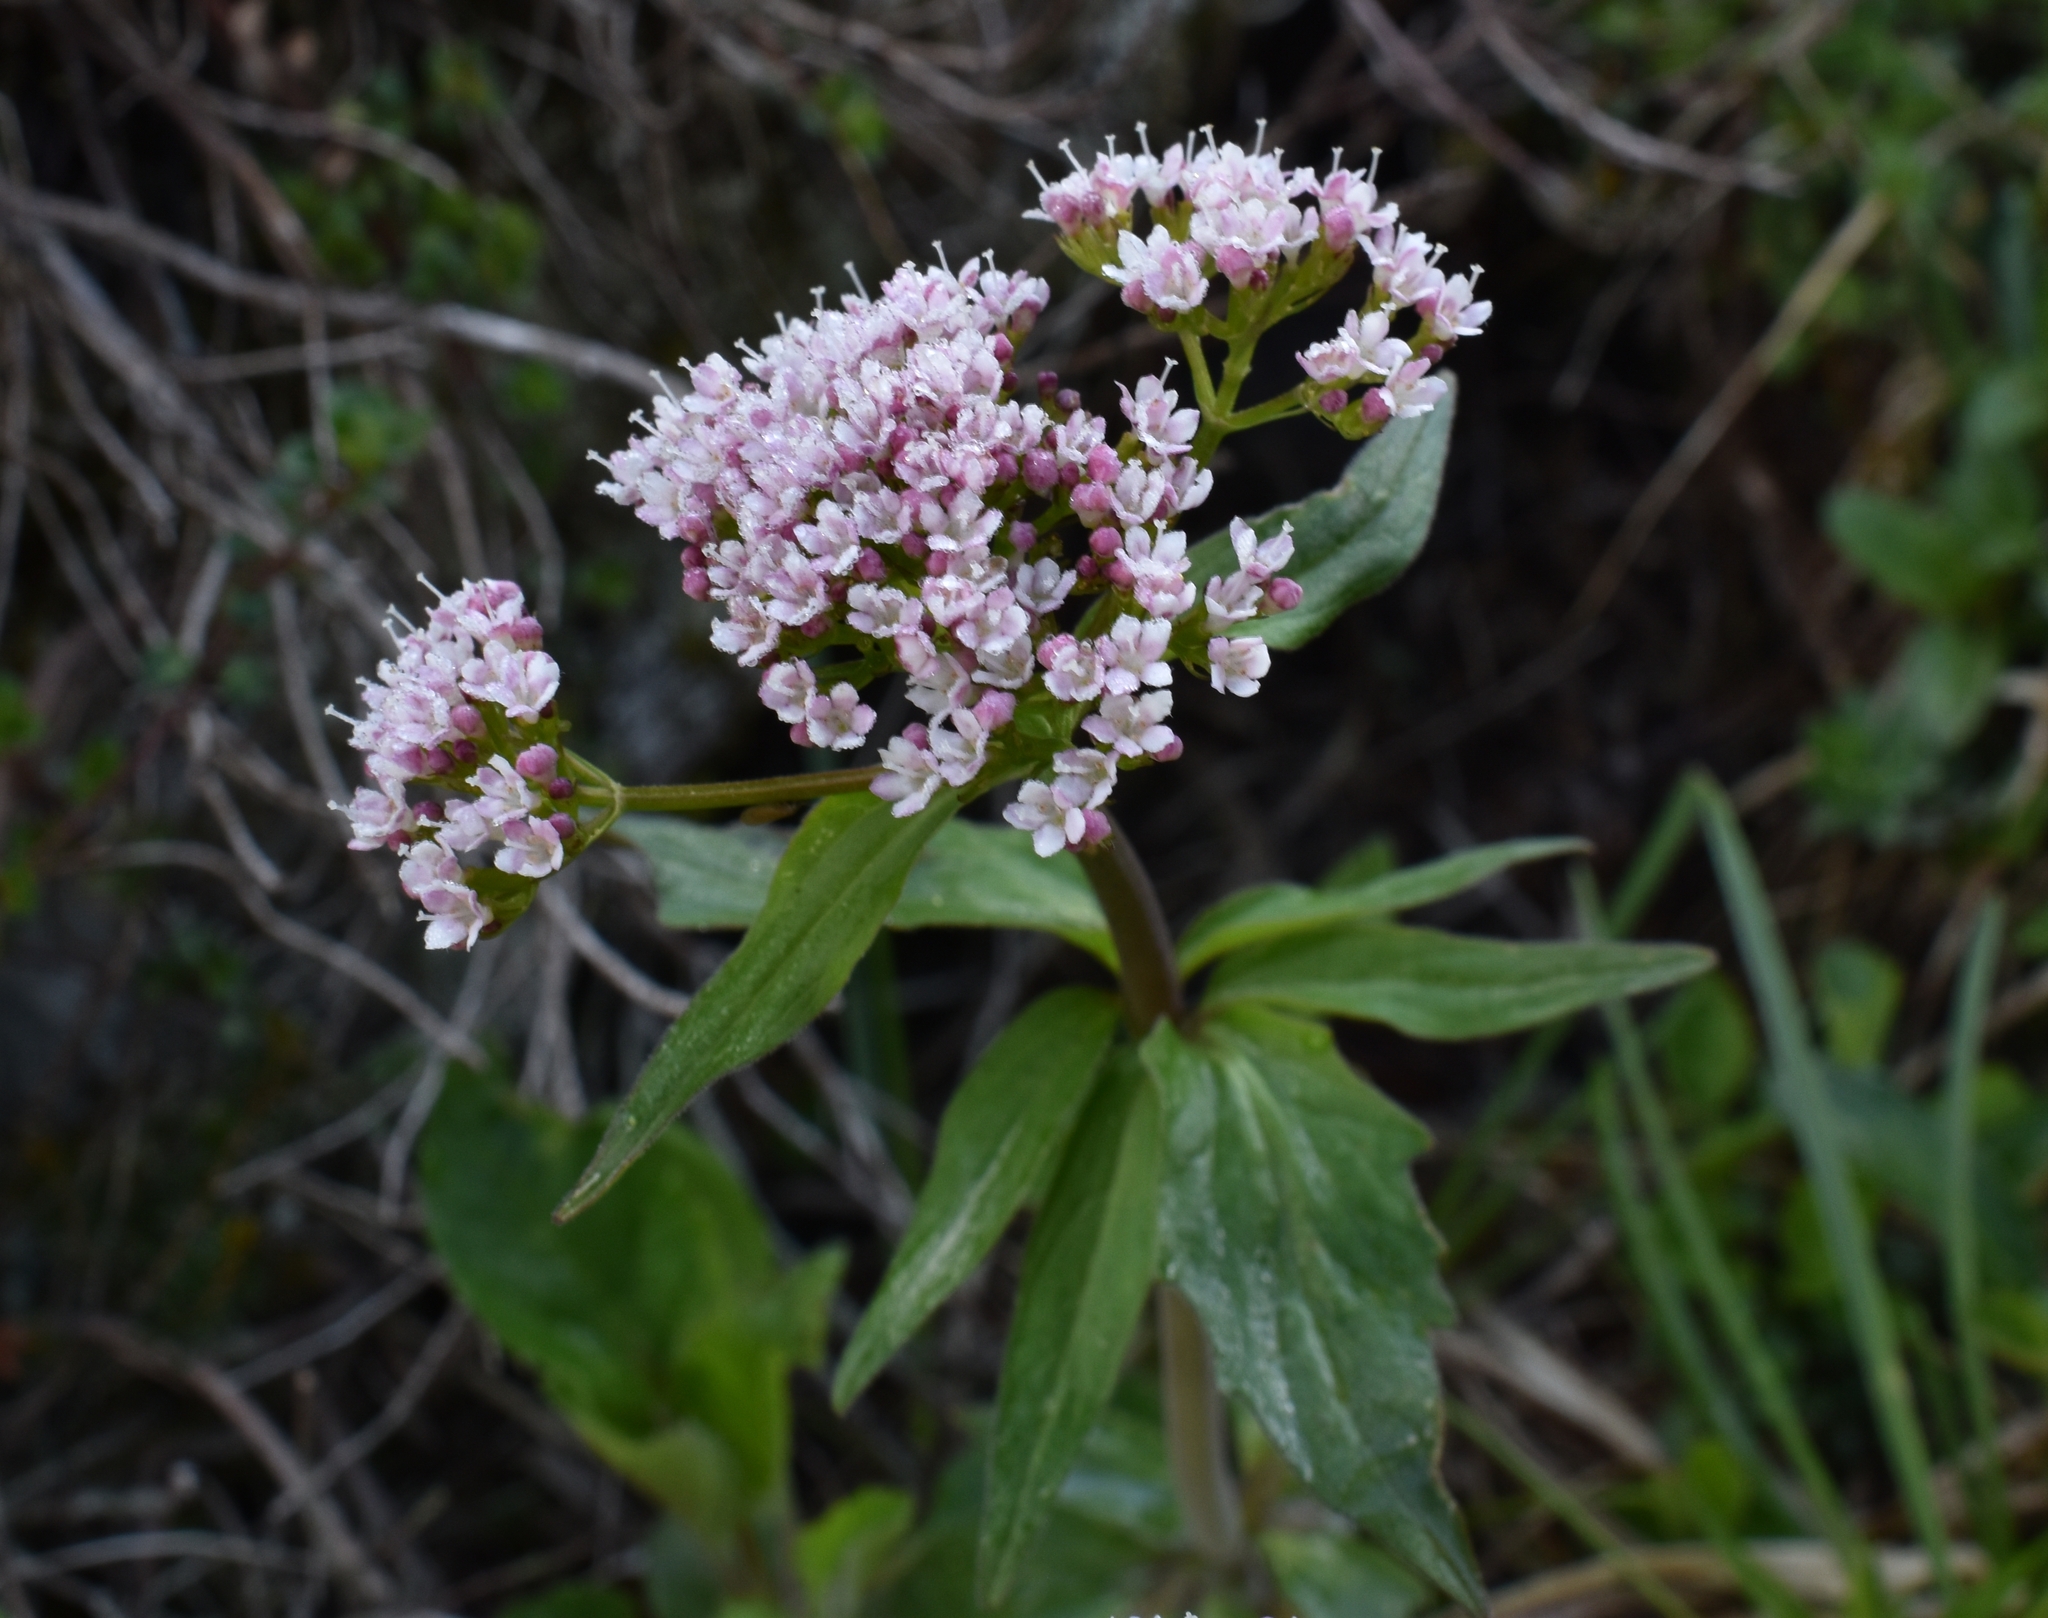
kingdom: Plantae
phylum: Tracheophyta
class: Magnoliopsida
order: Dipsacales
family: Caprifoliaceae
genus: Valeriana
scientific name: Valeriana tripteris
